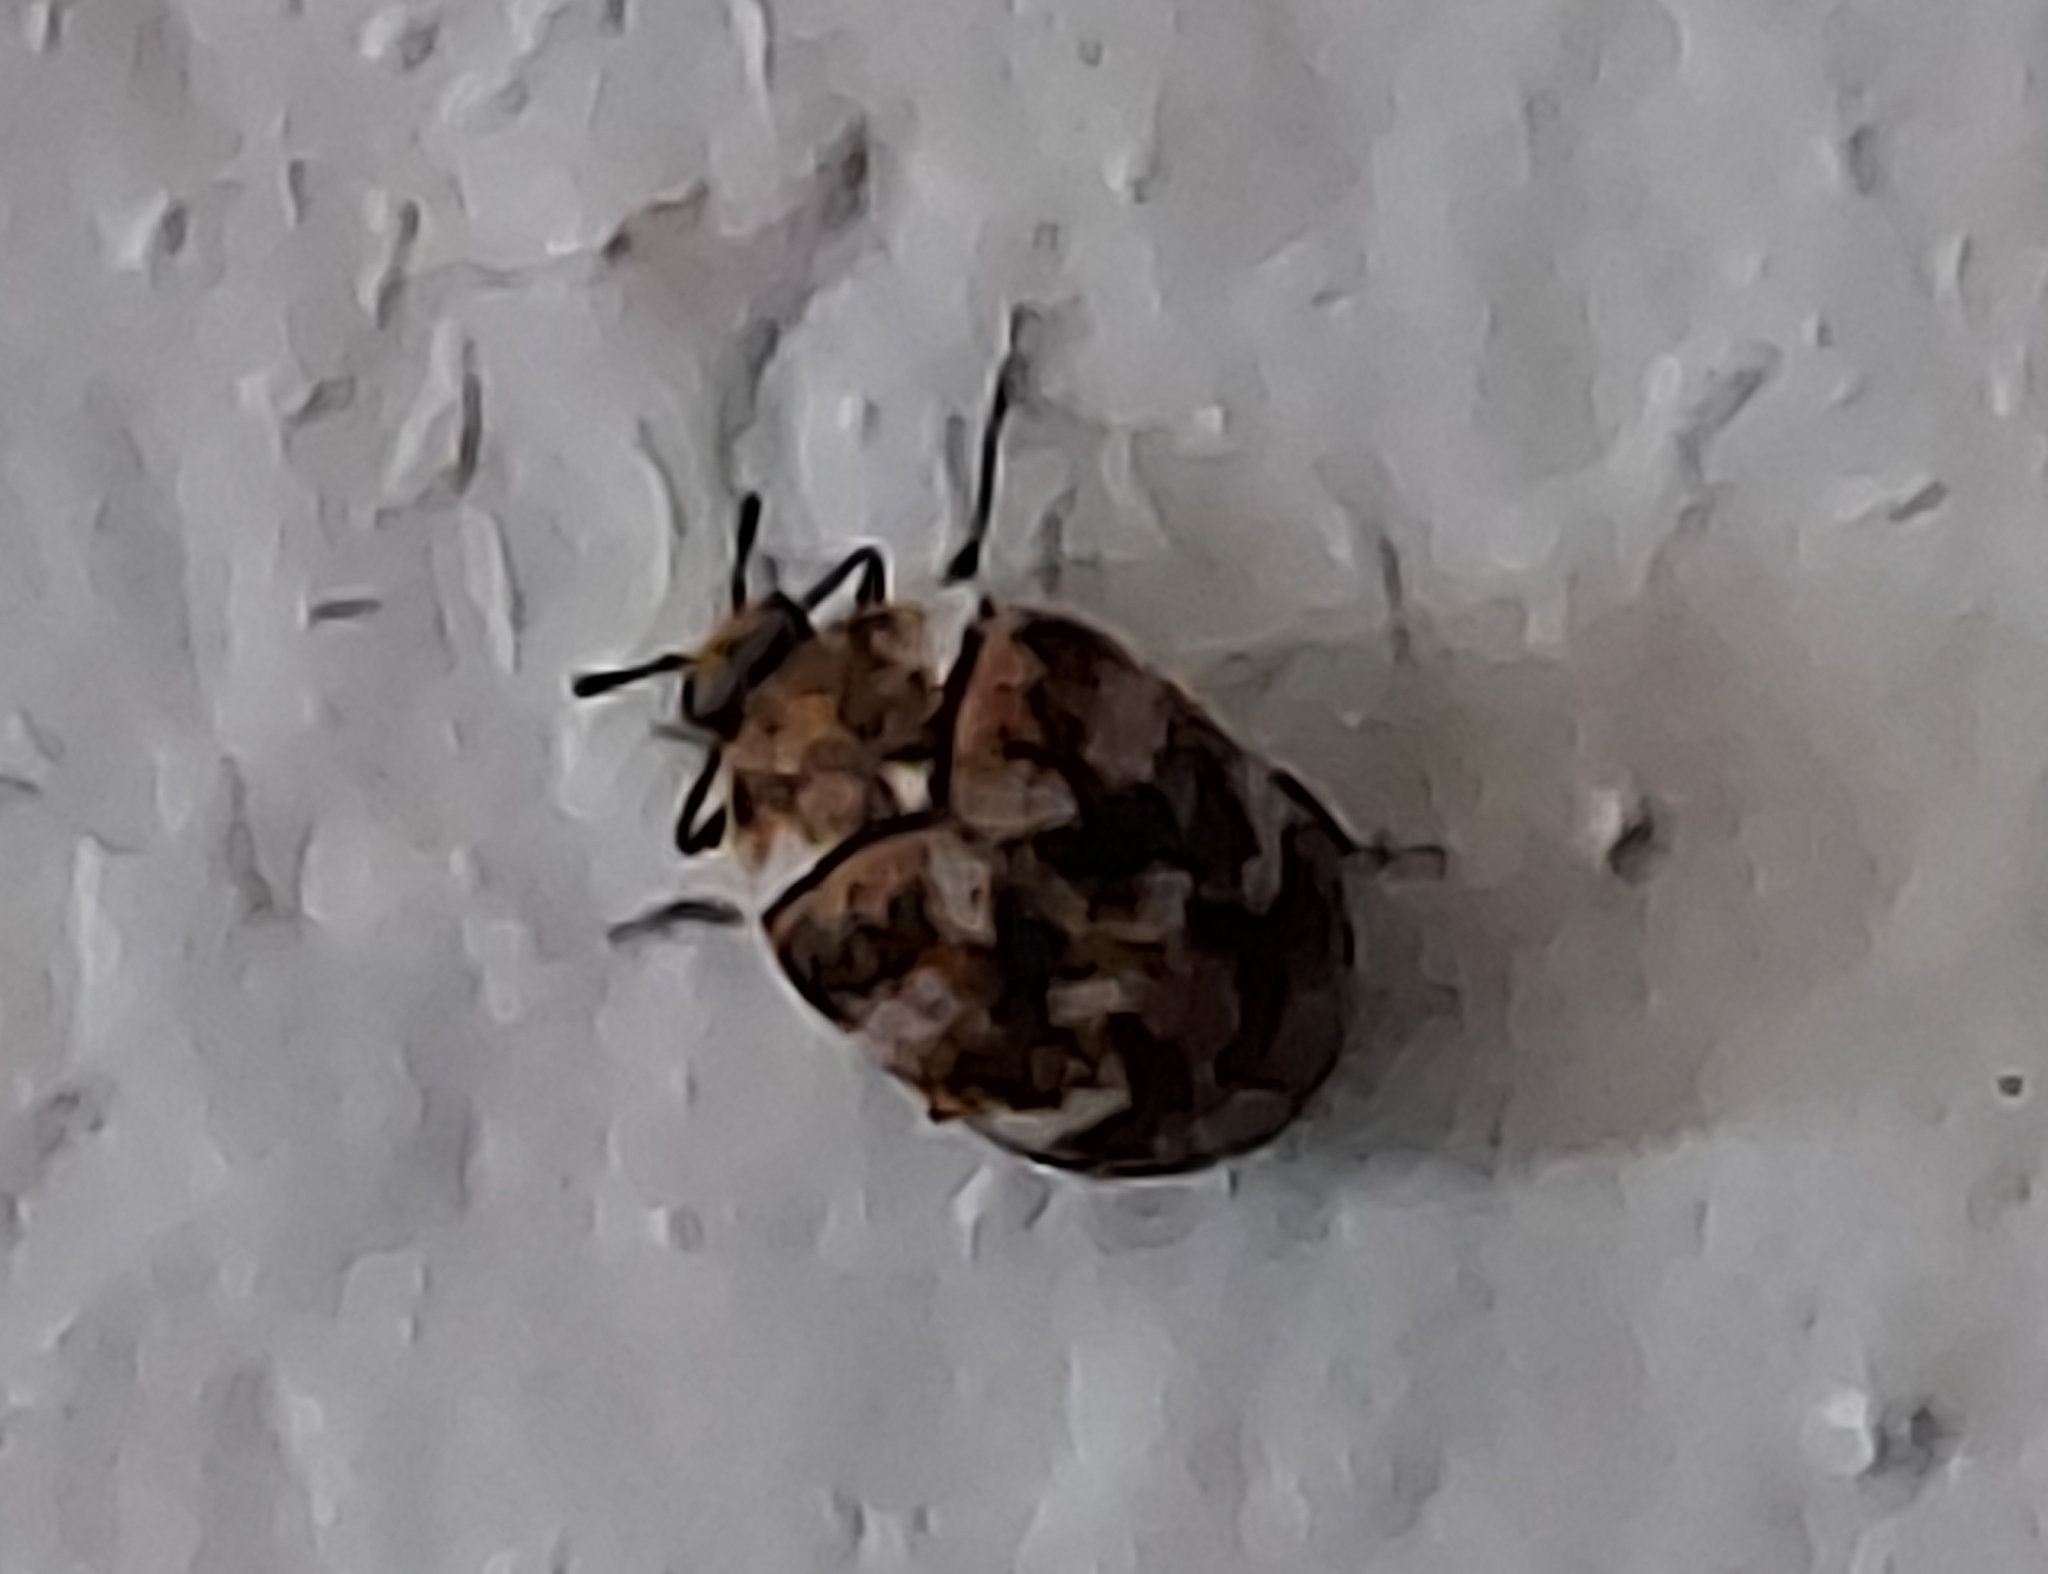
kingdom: Animalia
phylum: Arthropoda
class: Insecta
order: Coleoptera
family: Dermestidae
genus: Anthrenus
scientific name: Anthrenus verbasci
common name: Varied carpet beetle
